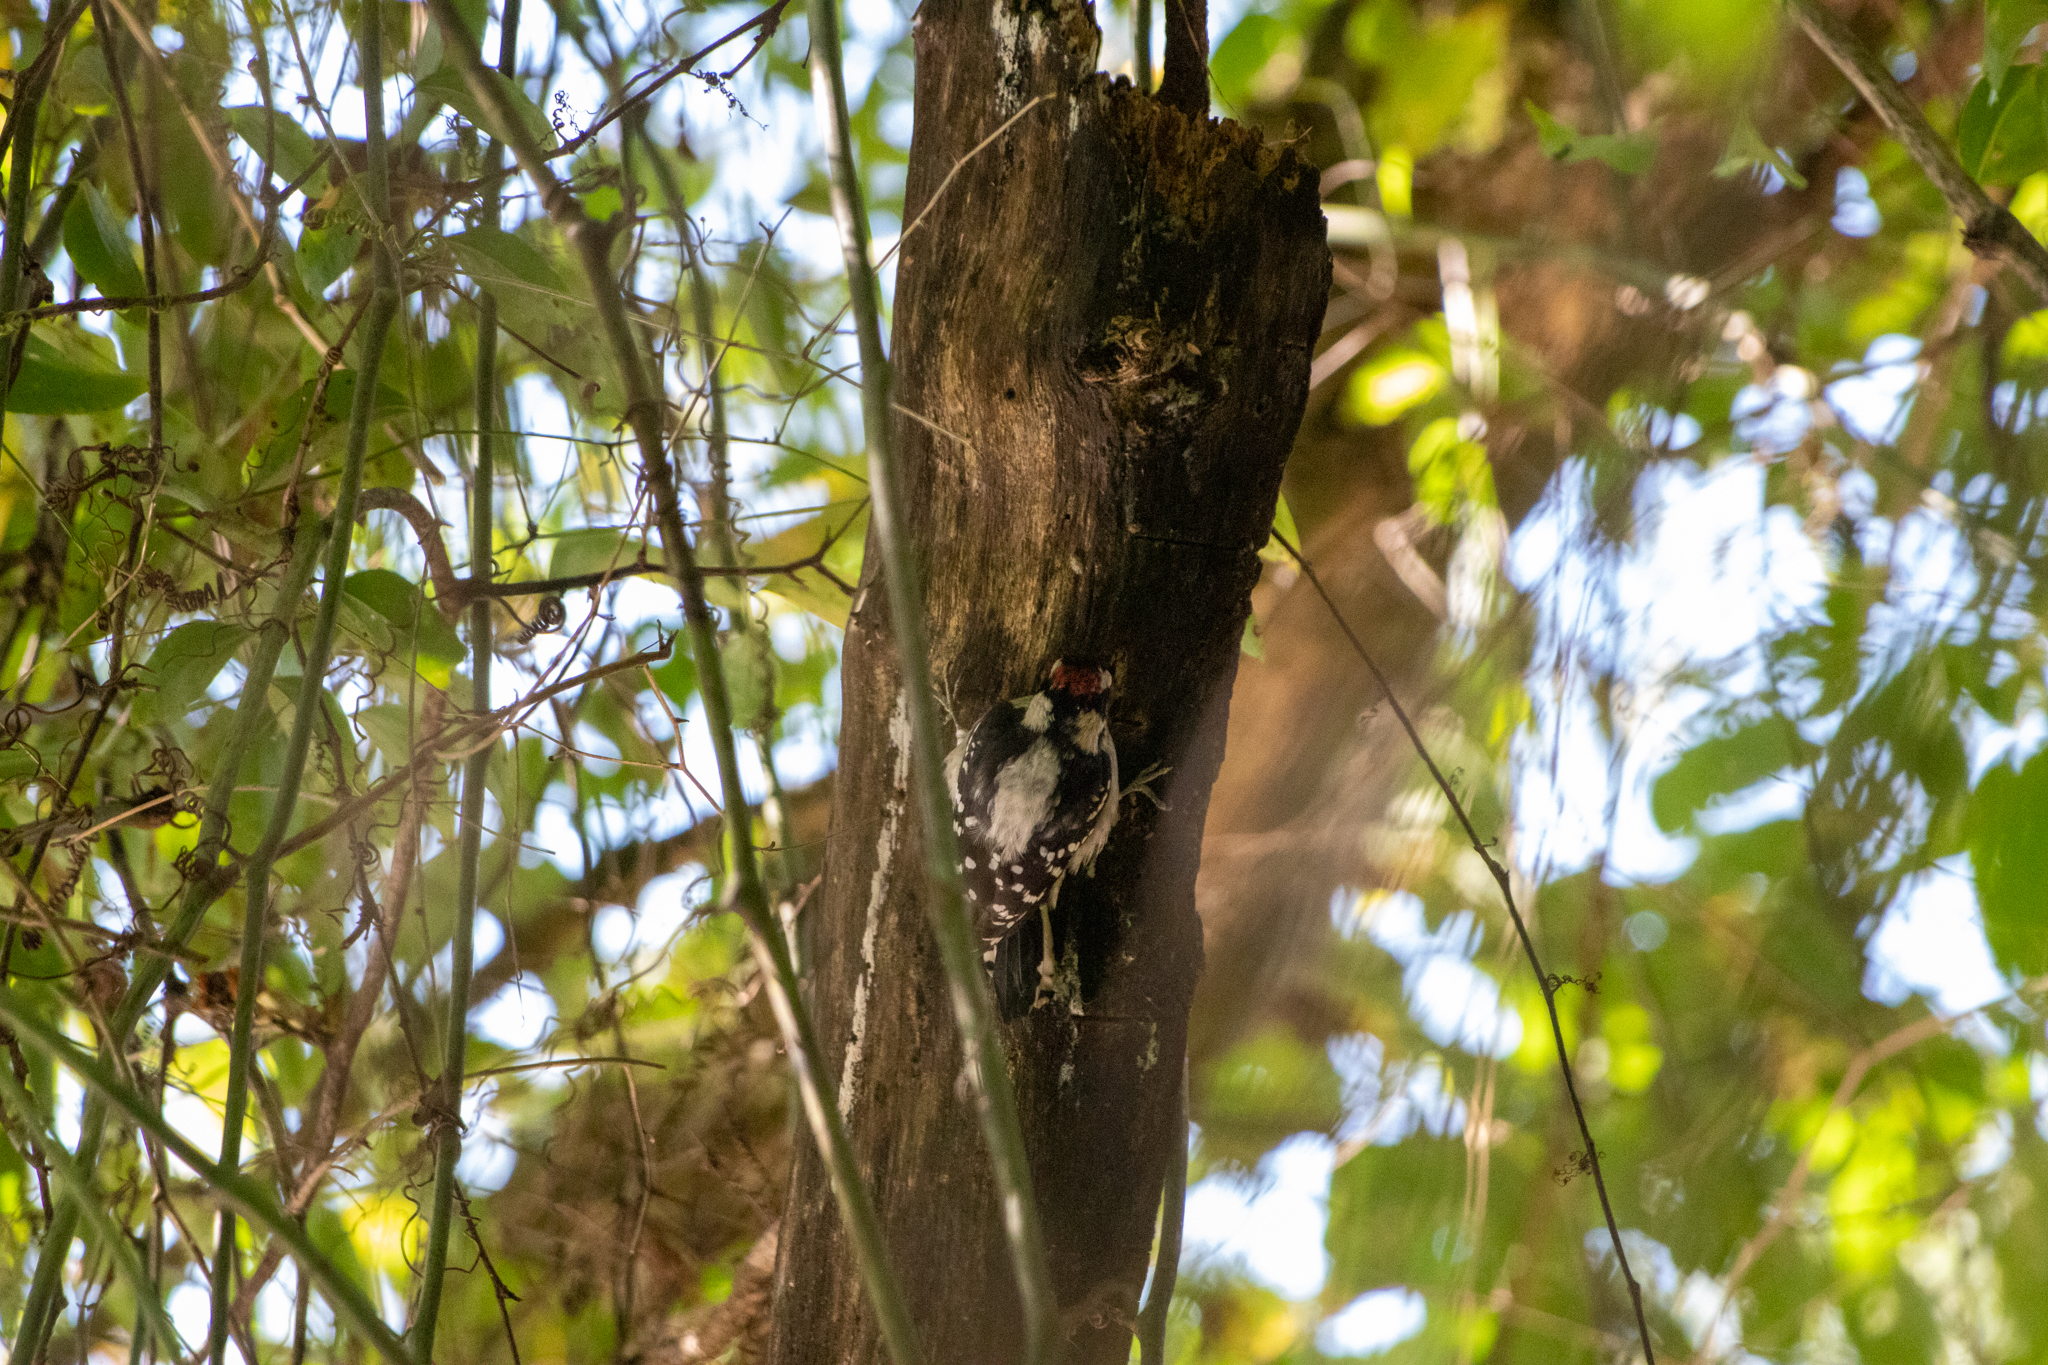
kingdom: Animalia
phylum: Chordata
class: Aves
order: Piciformes
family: Picidae
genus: Dryobates
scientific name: Dryobates pubescens
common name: Downy woodpecker
